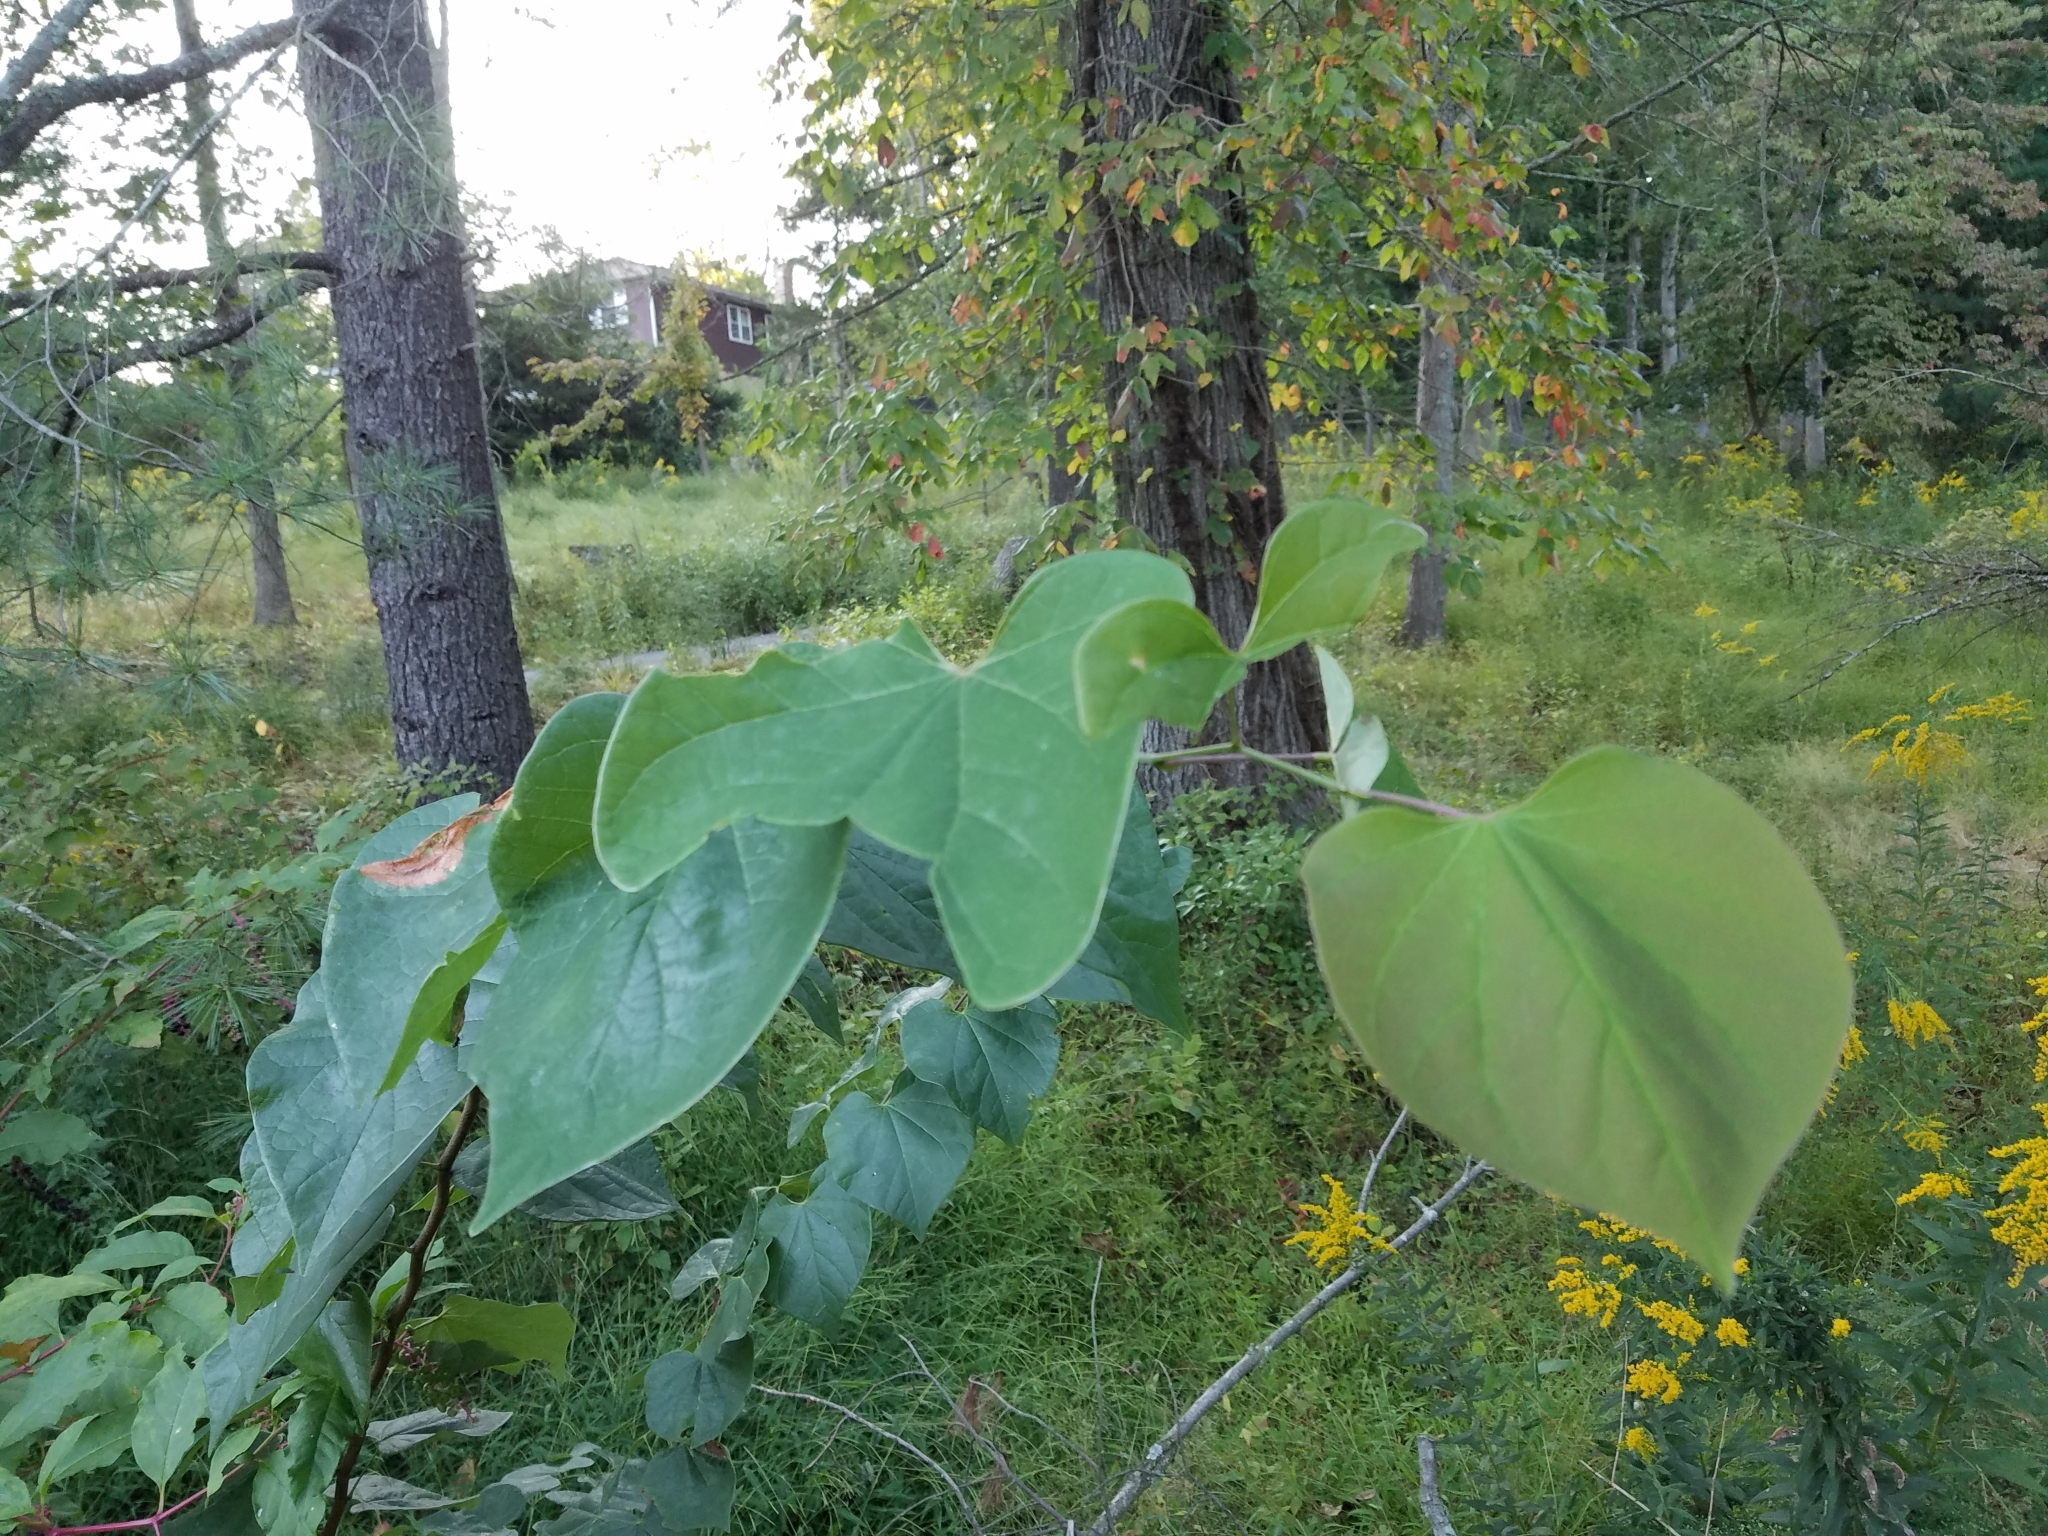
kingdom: Plantae
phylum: Tracheophyta
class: Magnoliopsida
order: Fabales
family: Fabaceae
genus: Cercis
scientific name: Cercis canadensis
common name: Eastern redbud
